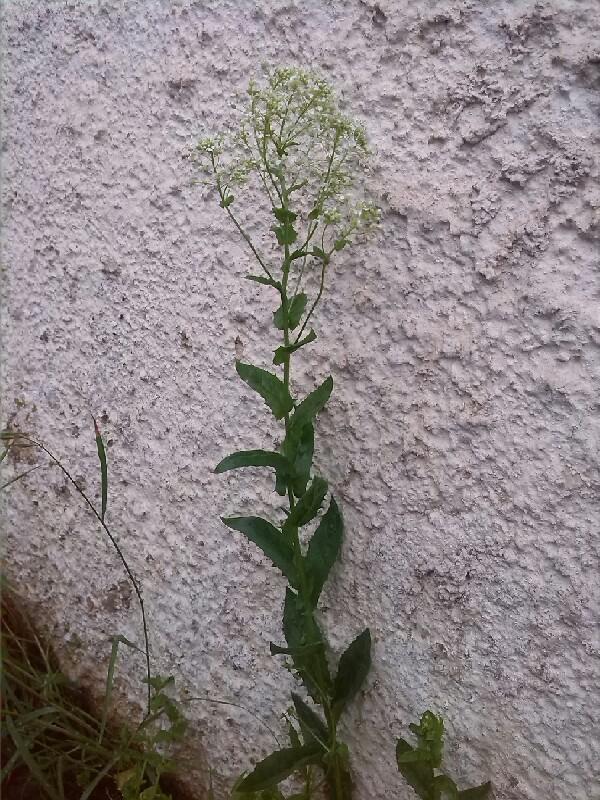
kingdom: Plantae
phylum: Tracheophyta
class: Magnoliopsida
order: Brassicales
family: Brassicaceae
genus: Lepidium
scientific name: Lepidium draba
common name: Hoary cress
